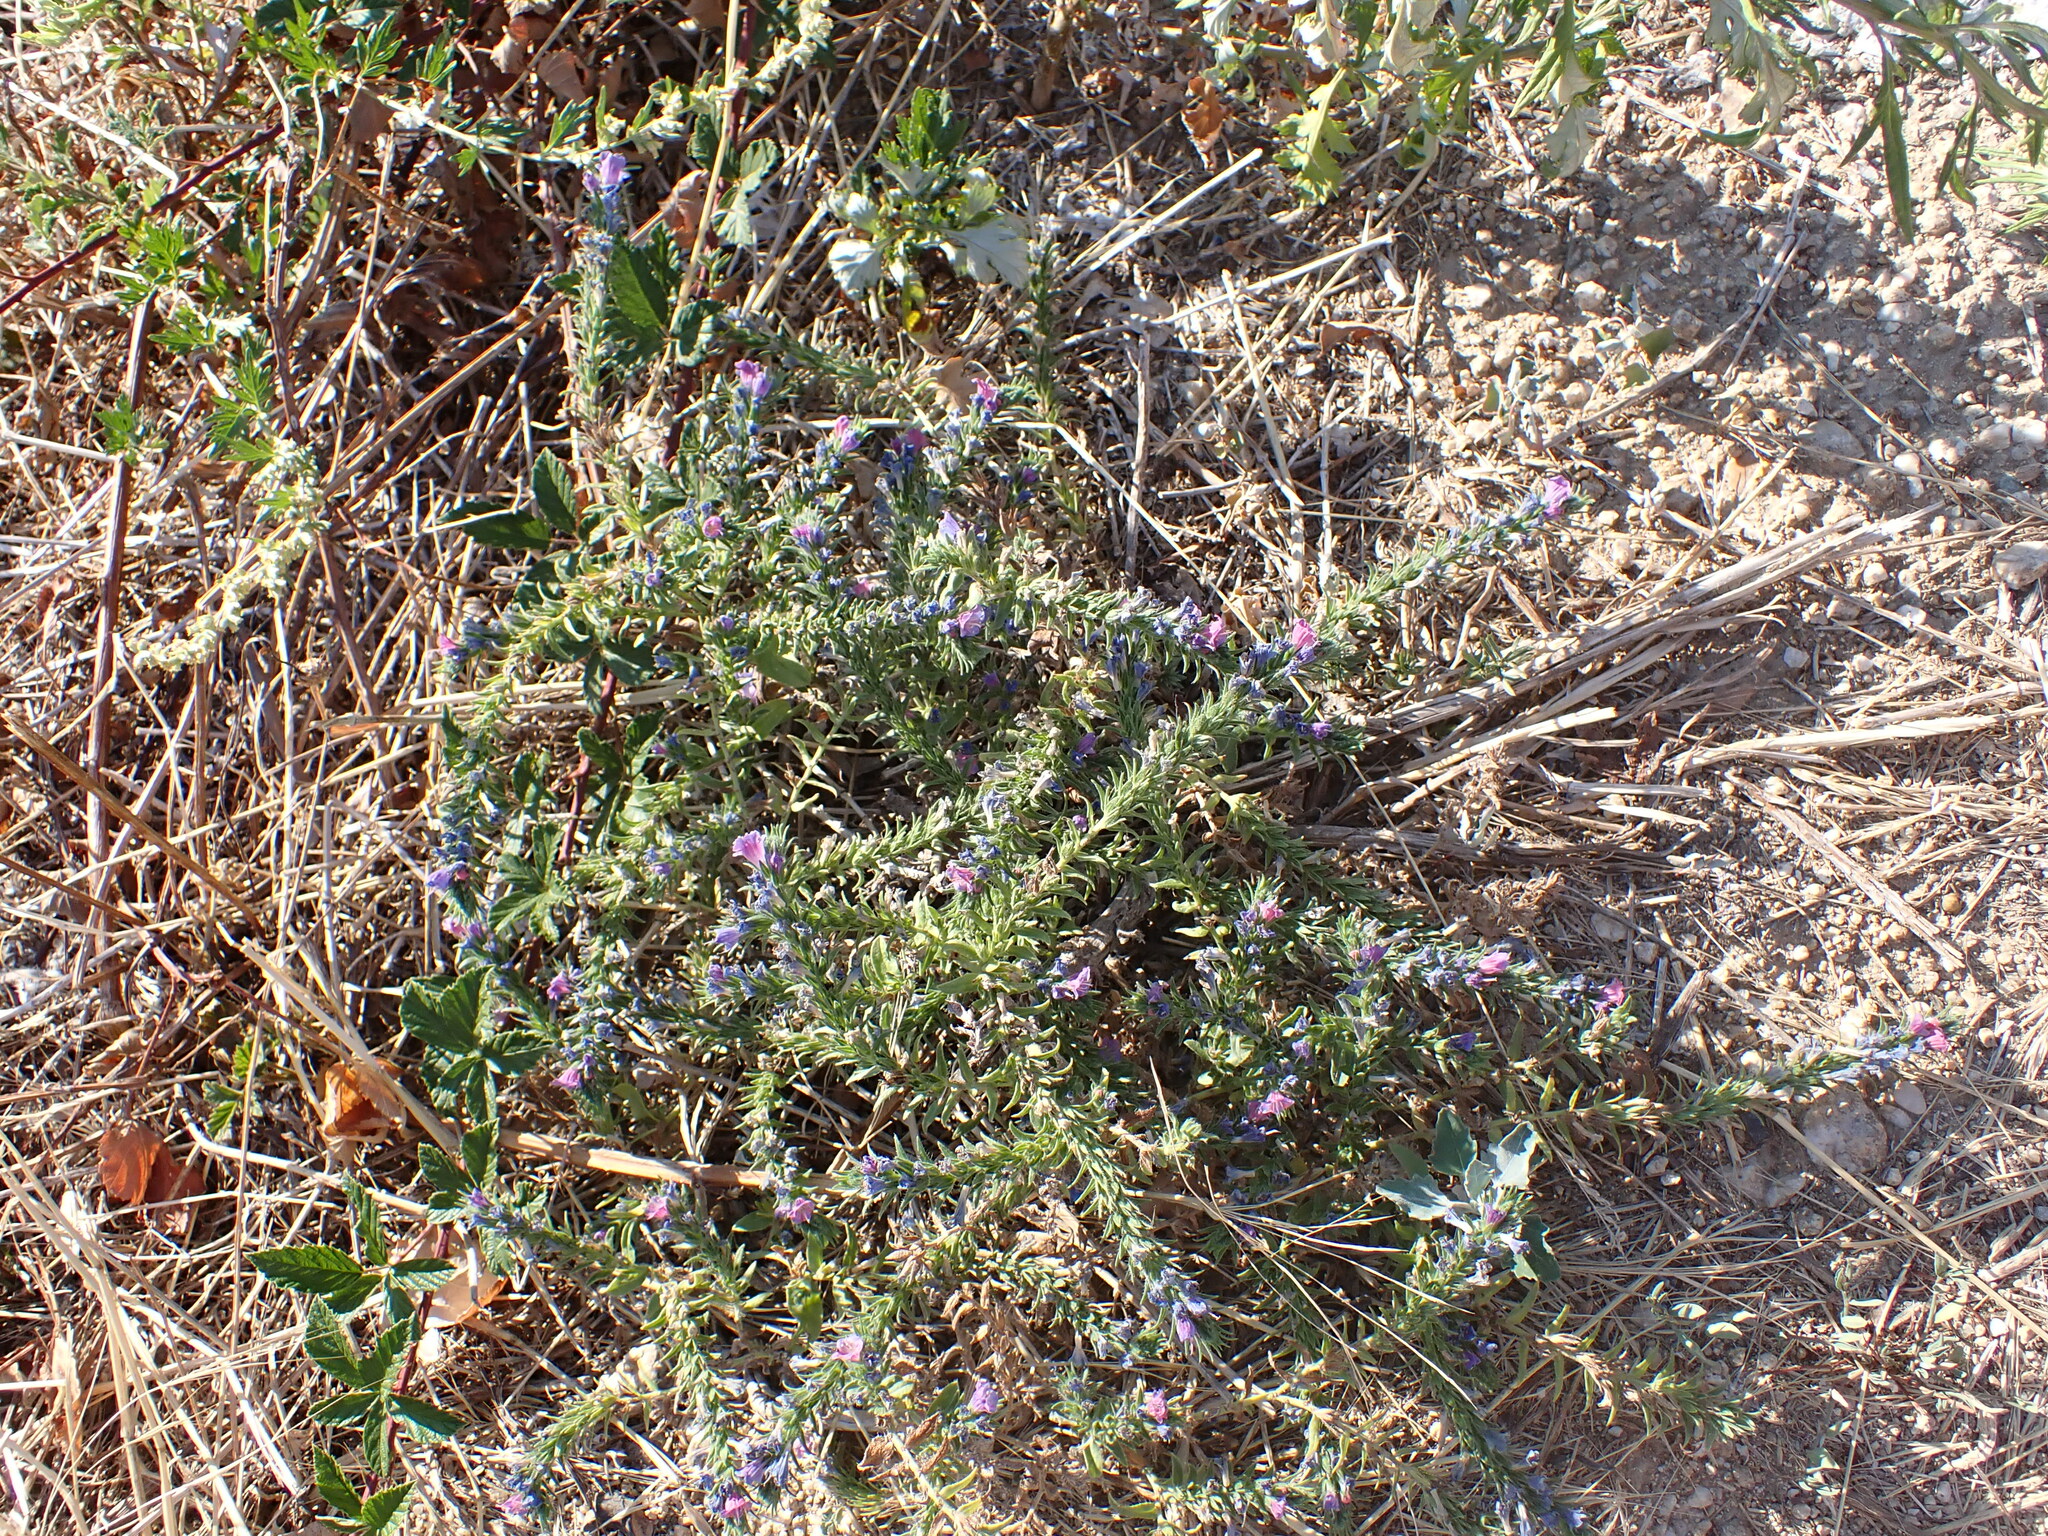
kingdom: Plantae
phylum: Tracheophyta
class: Magnoliopsida
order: Boraginales
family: Boraginaceae
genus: Echium
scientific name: Echium vulgare
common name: Common viper's bugloss
